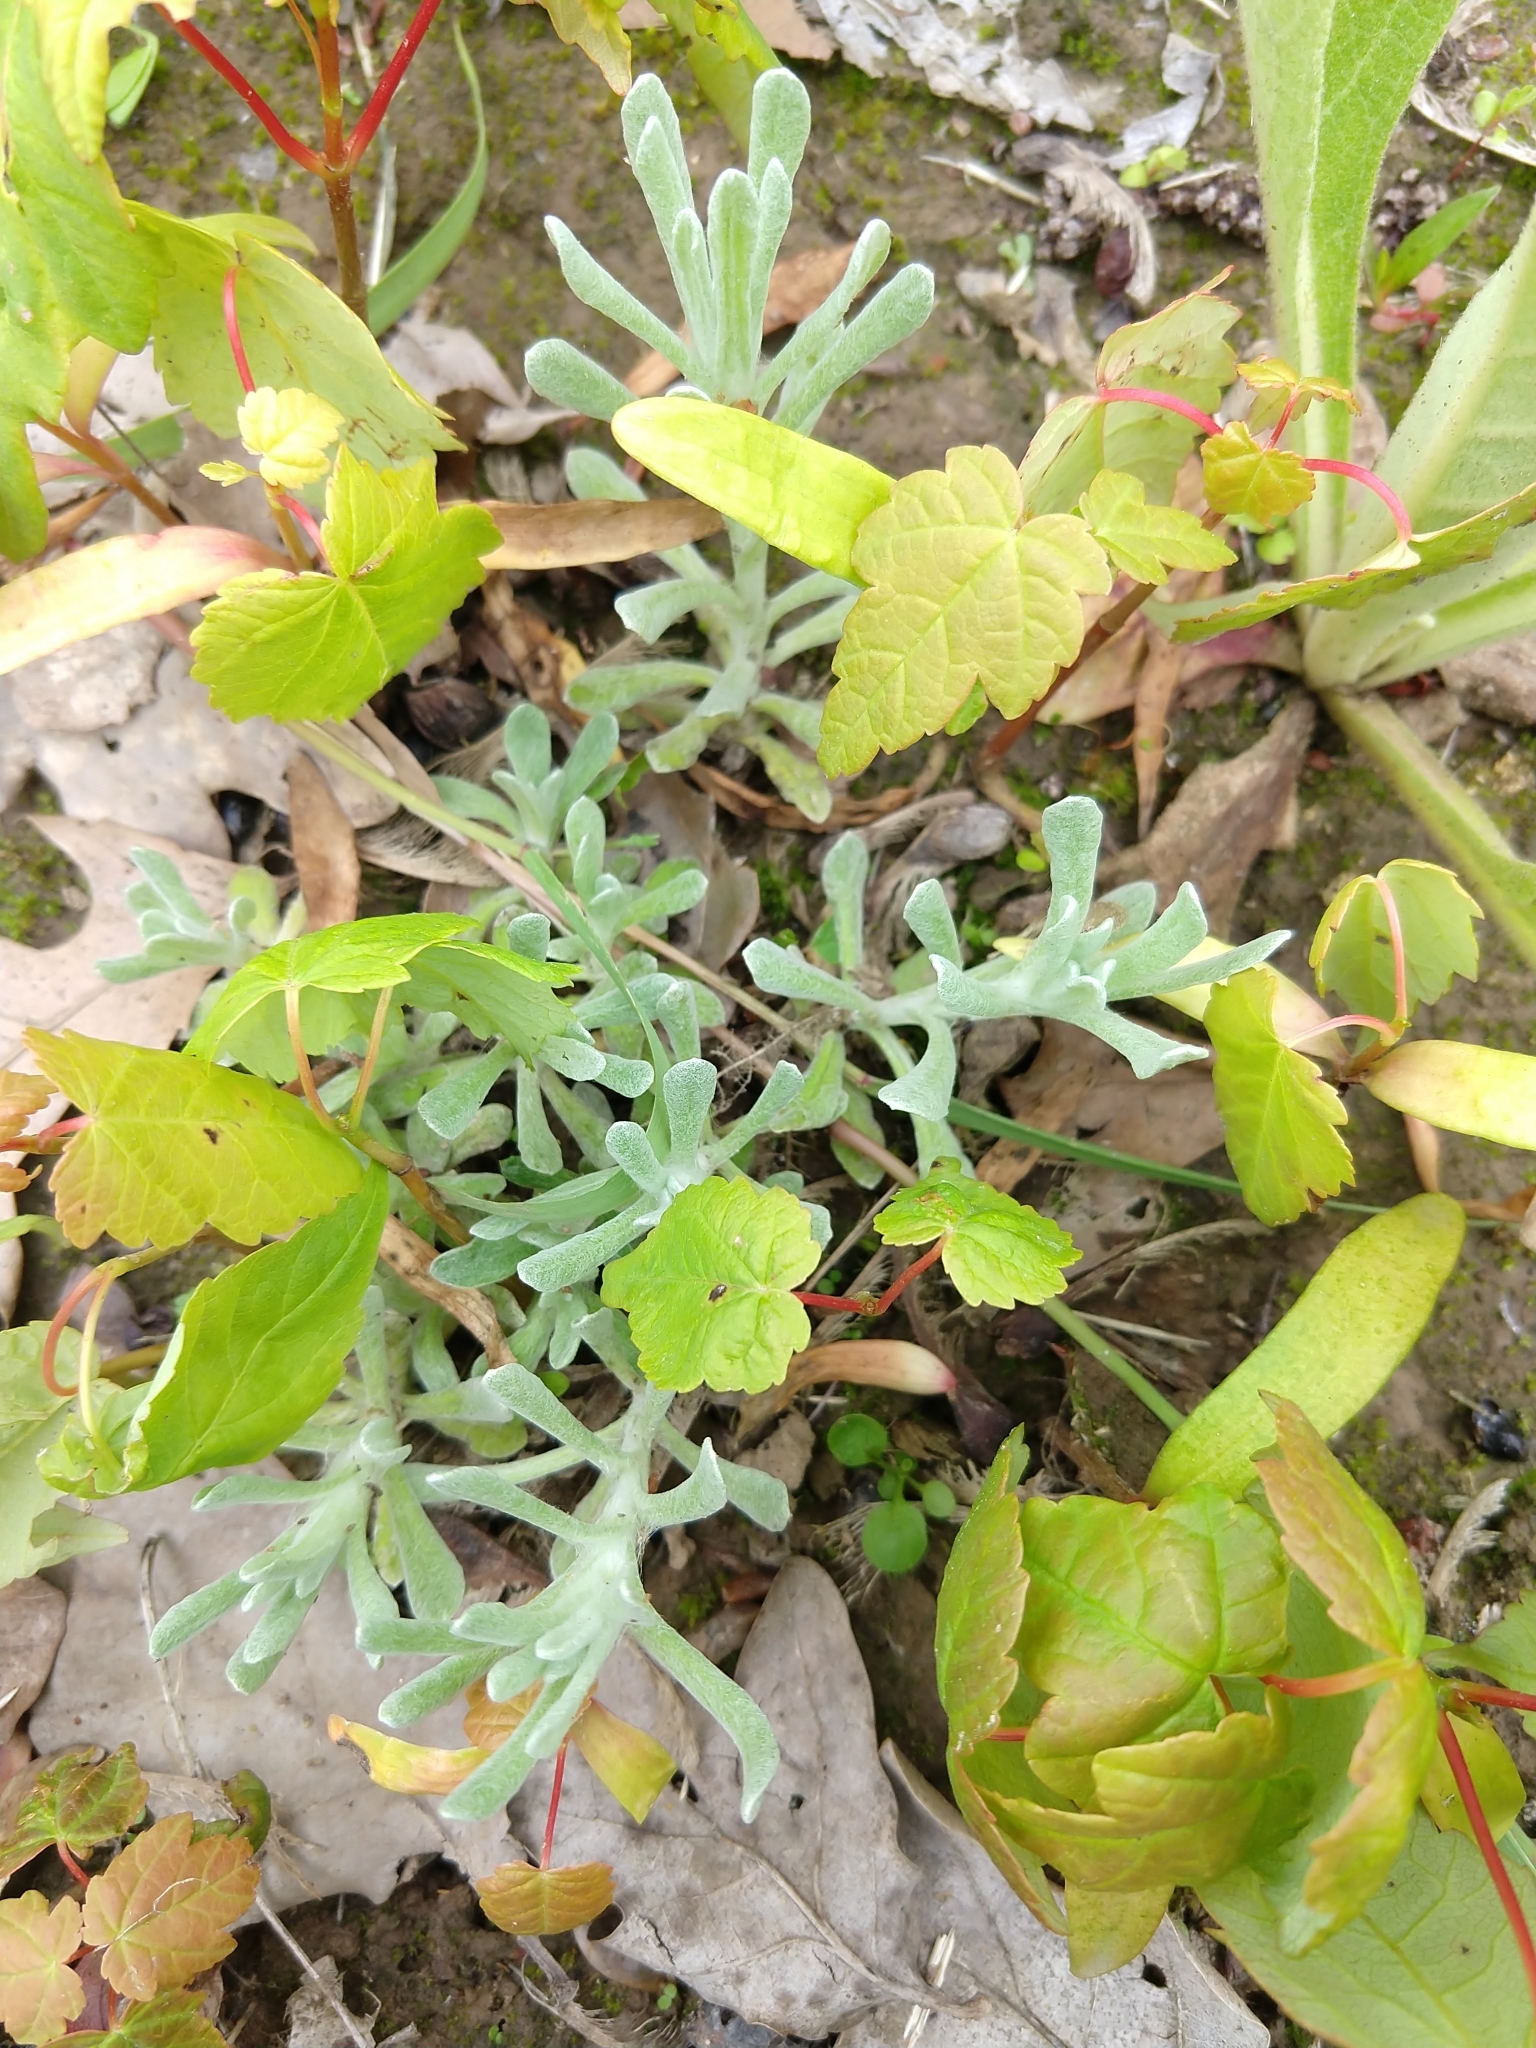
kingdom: Plantae
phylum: Tracheophyta
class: Magnoliopsida
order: Asterales
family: Asteraceae
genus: Helichrysum
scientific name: Helichrysum luteoalbum
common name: Daisy
